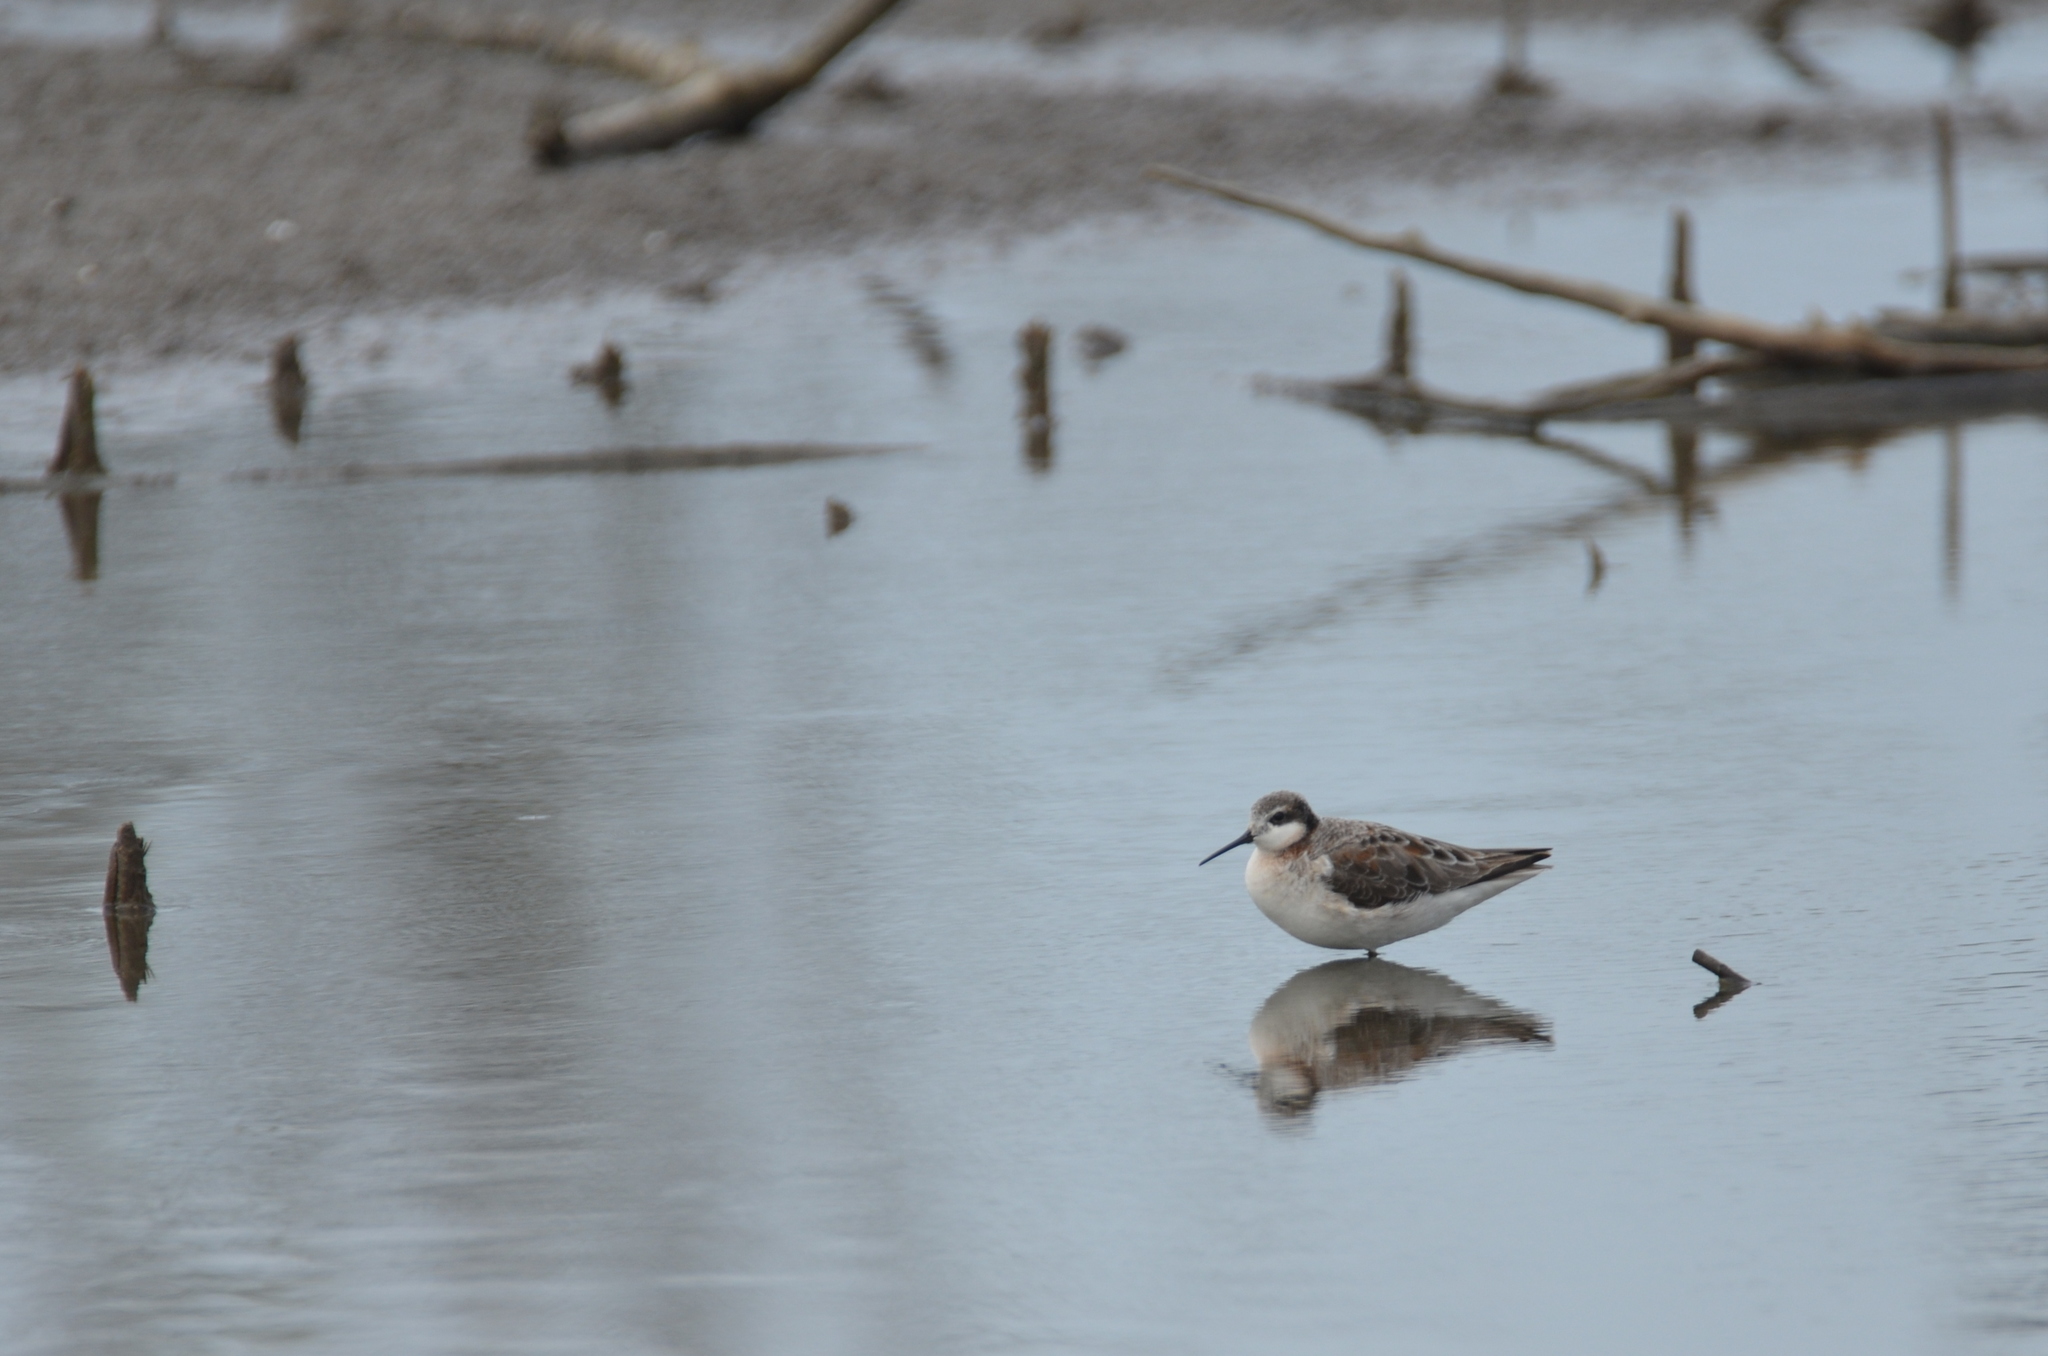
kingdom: Animalia
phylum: Chordata
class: Aves
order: Charadriiformes
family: Scolopacidae
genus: Phalaropus
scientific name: Phalaropus tricolor
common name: Wilson's phalarope
